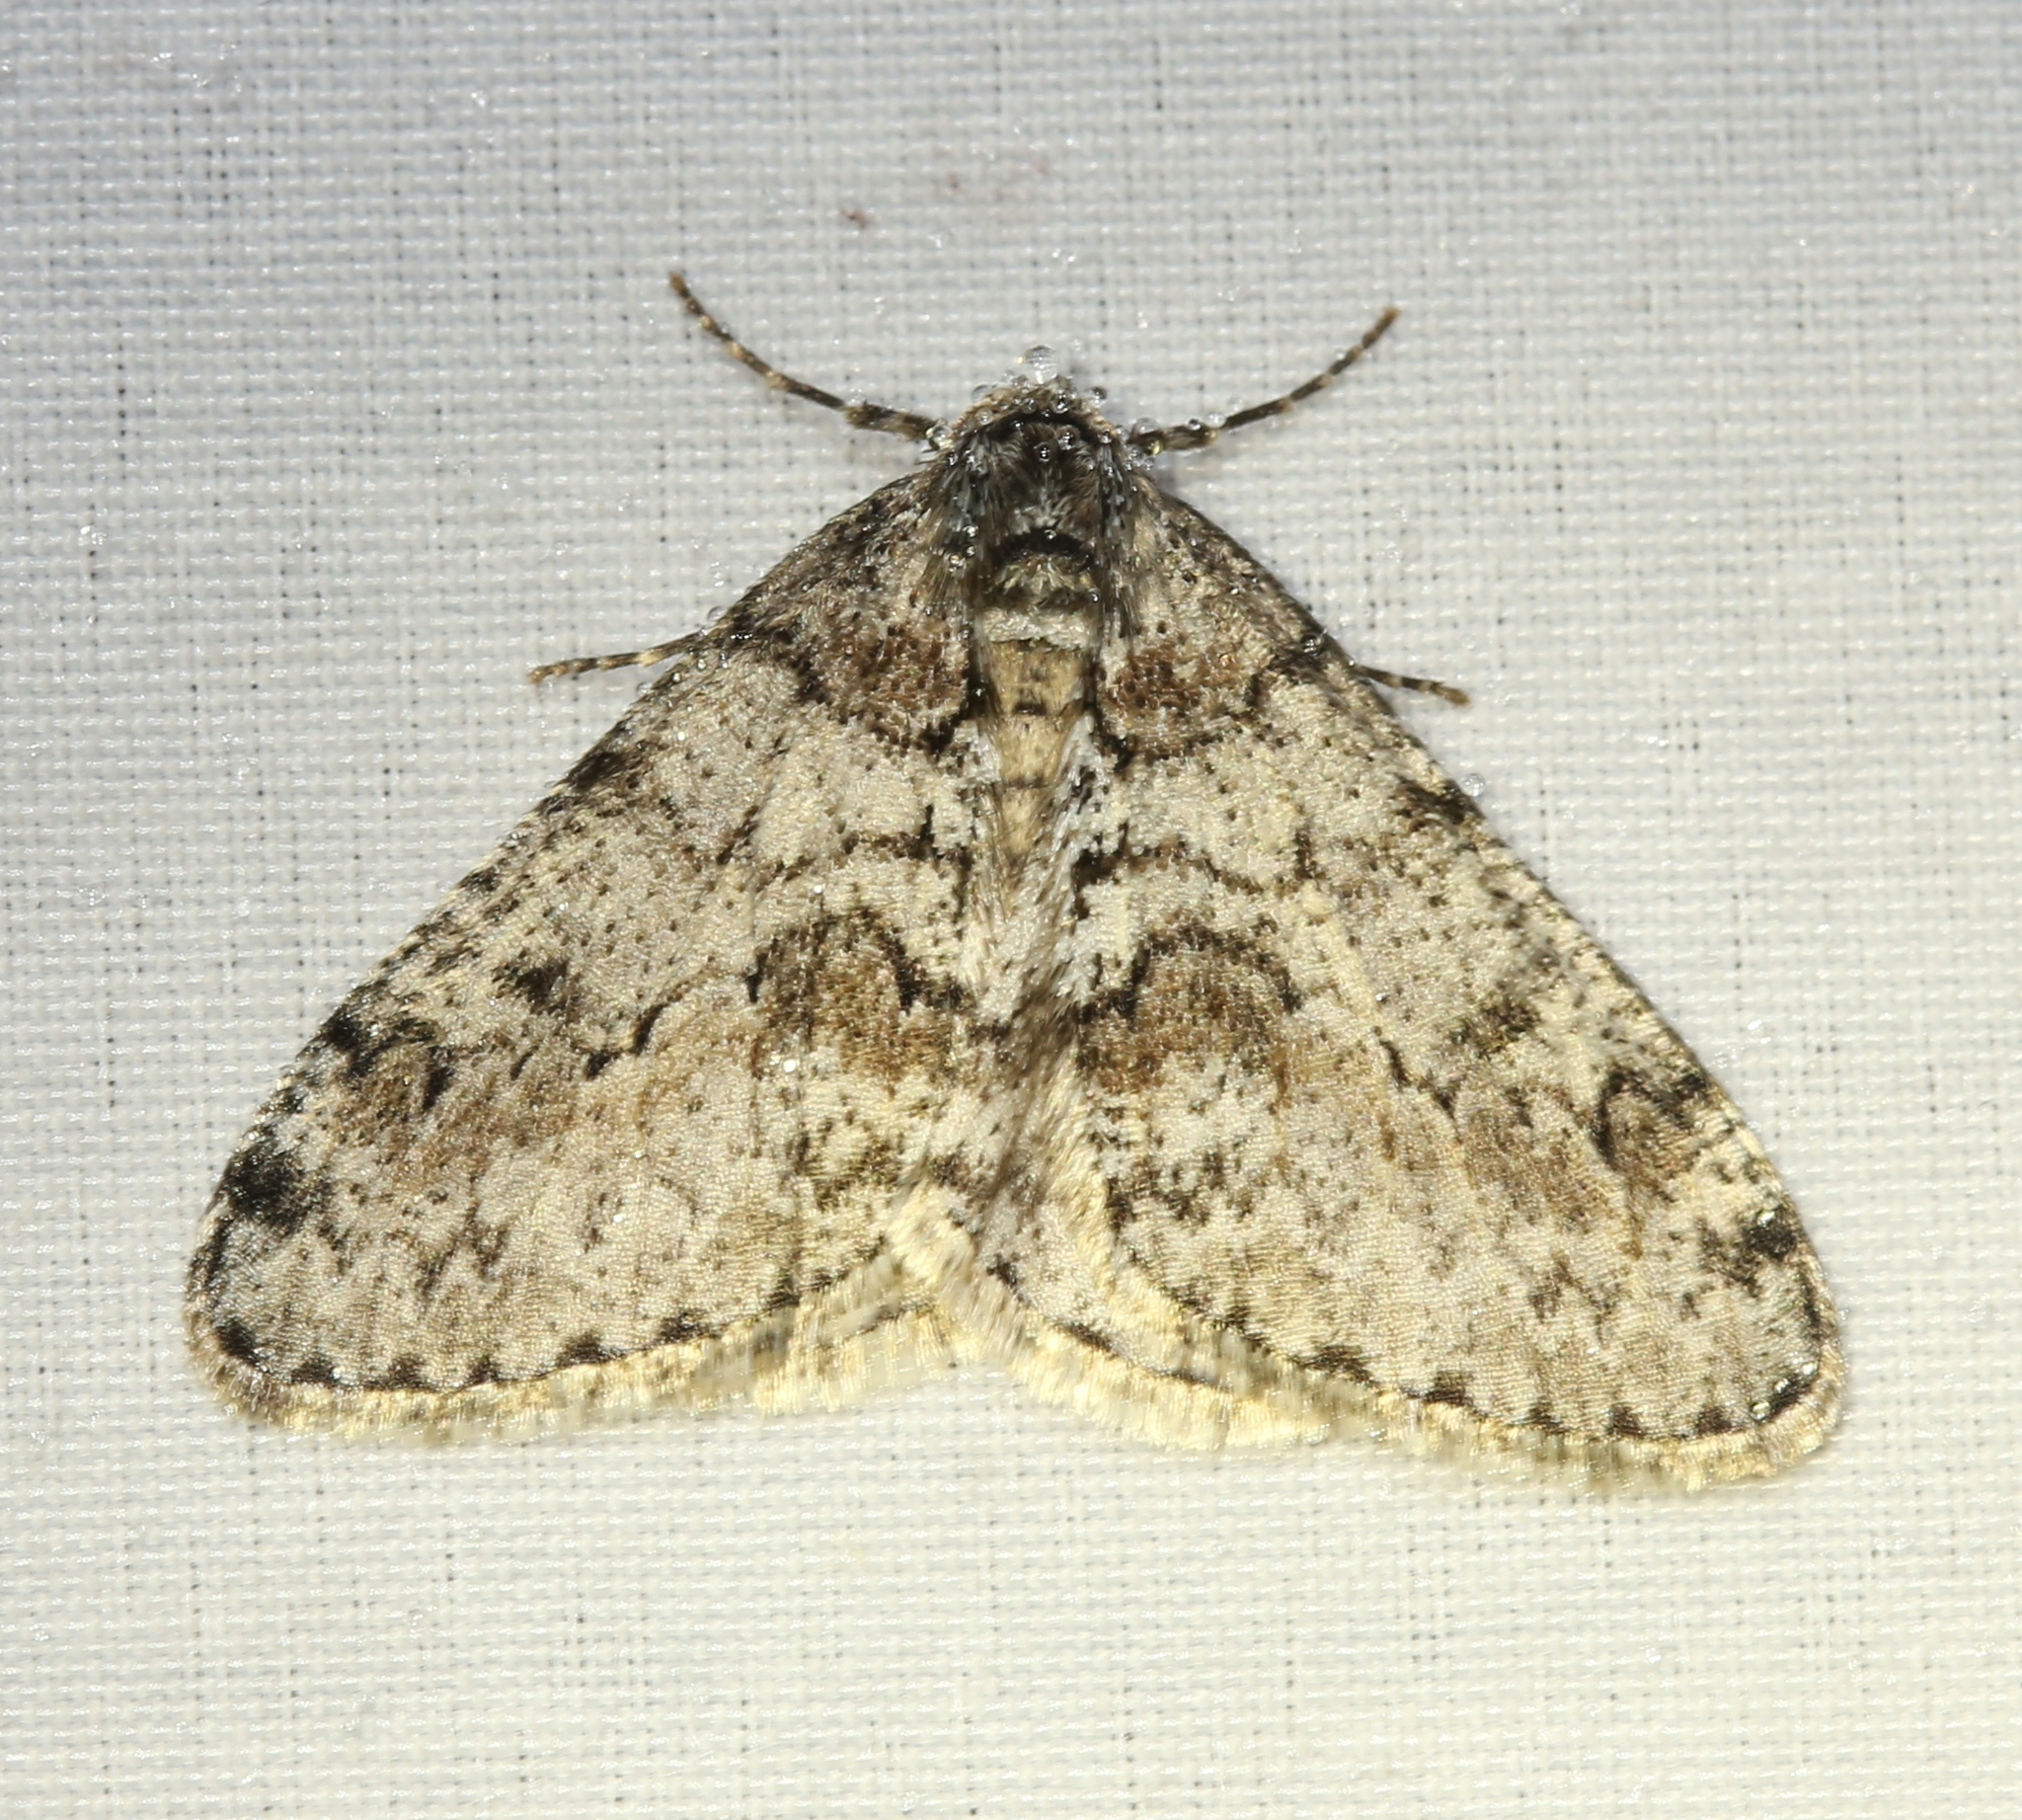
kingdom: Animalia
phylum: Arthropoda
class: Insecta
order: Lepidoptera
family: Geometridae
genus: Phigalia
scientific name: Phigalia denticulata
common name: Toothed phigalia
